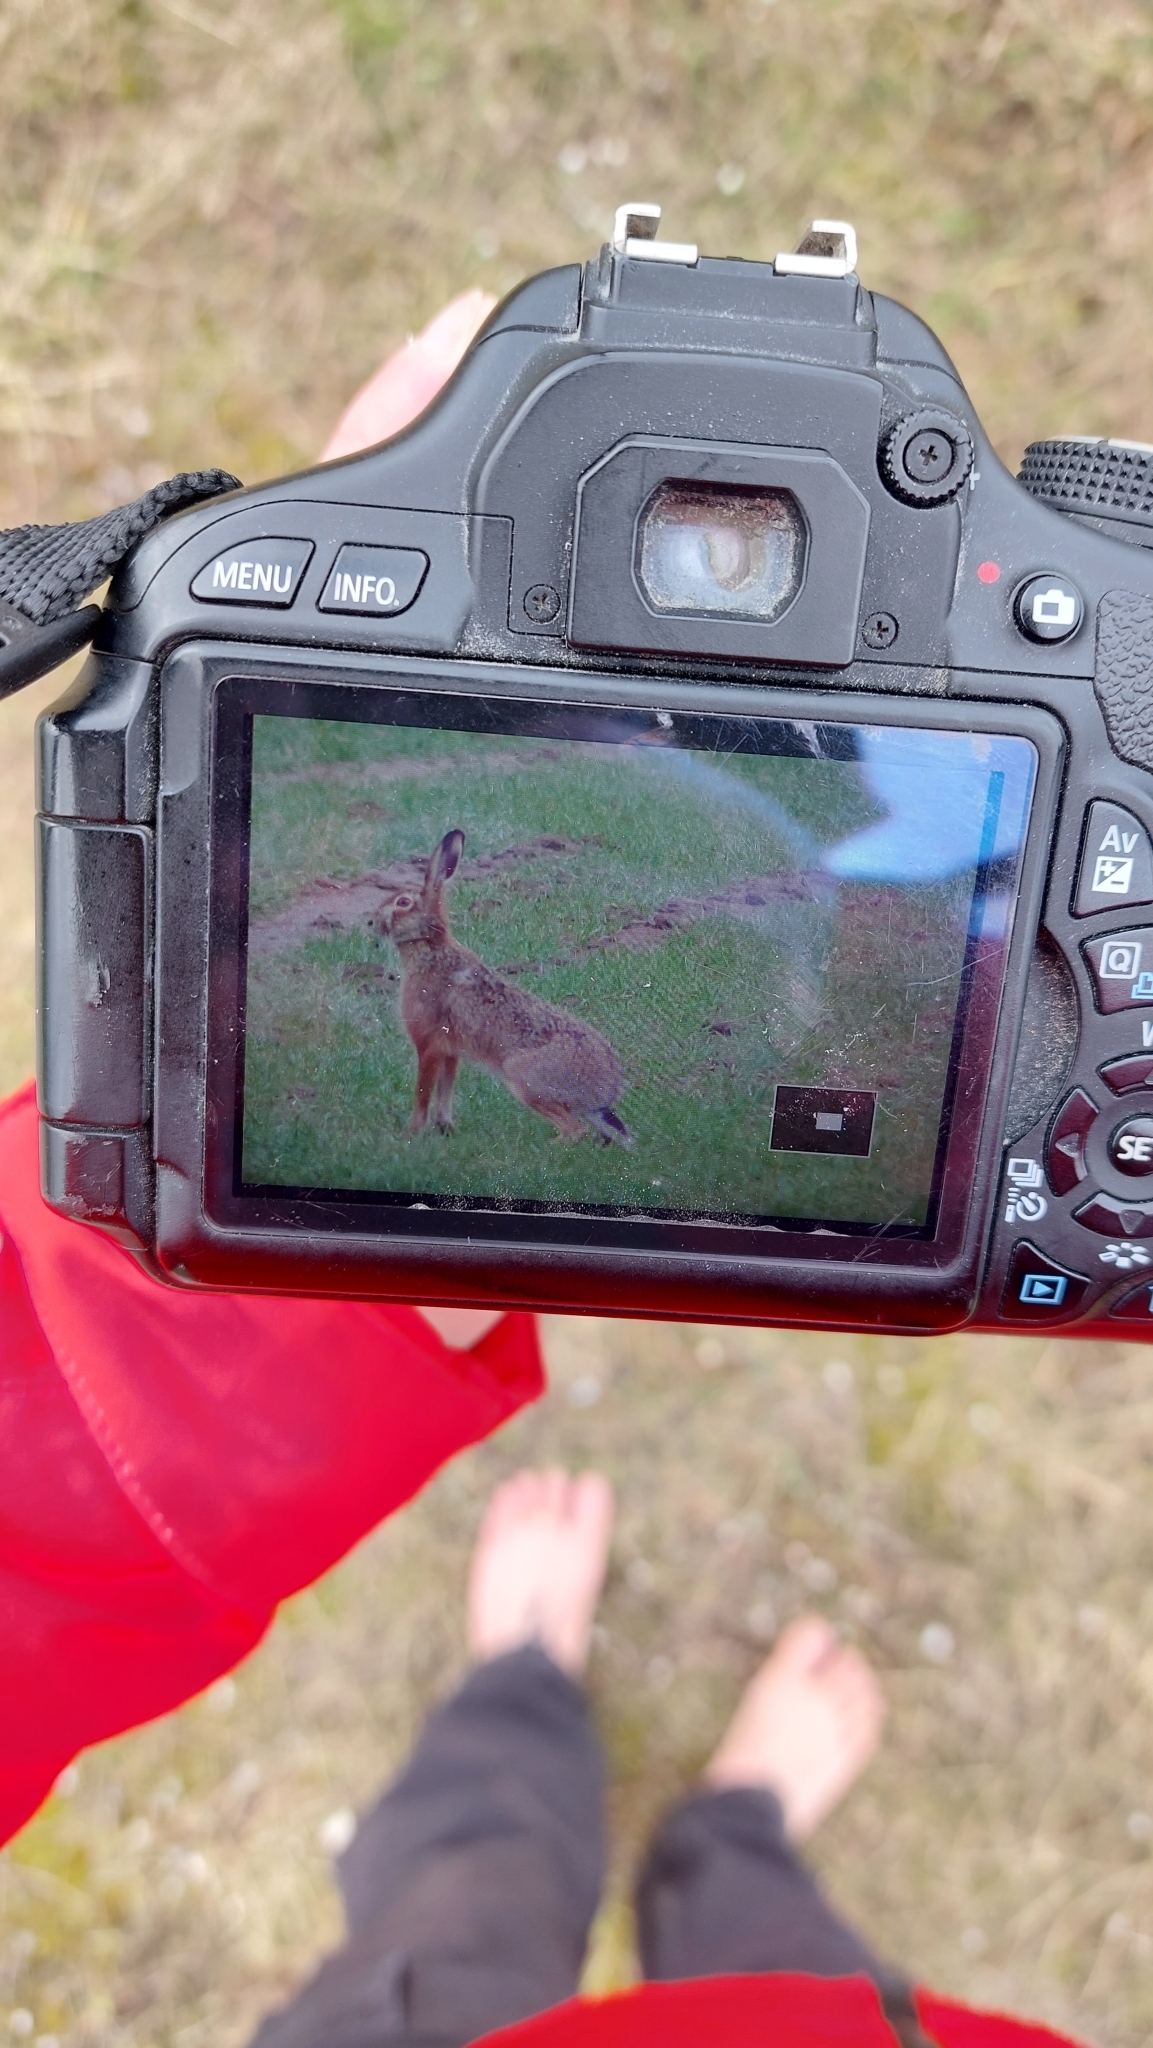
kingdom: Animalia
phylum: Chordata
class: Mammalia
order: Lagomorpha
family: Leporidae
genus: Lepus
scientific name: Lepus europaeus
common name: European hare
